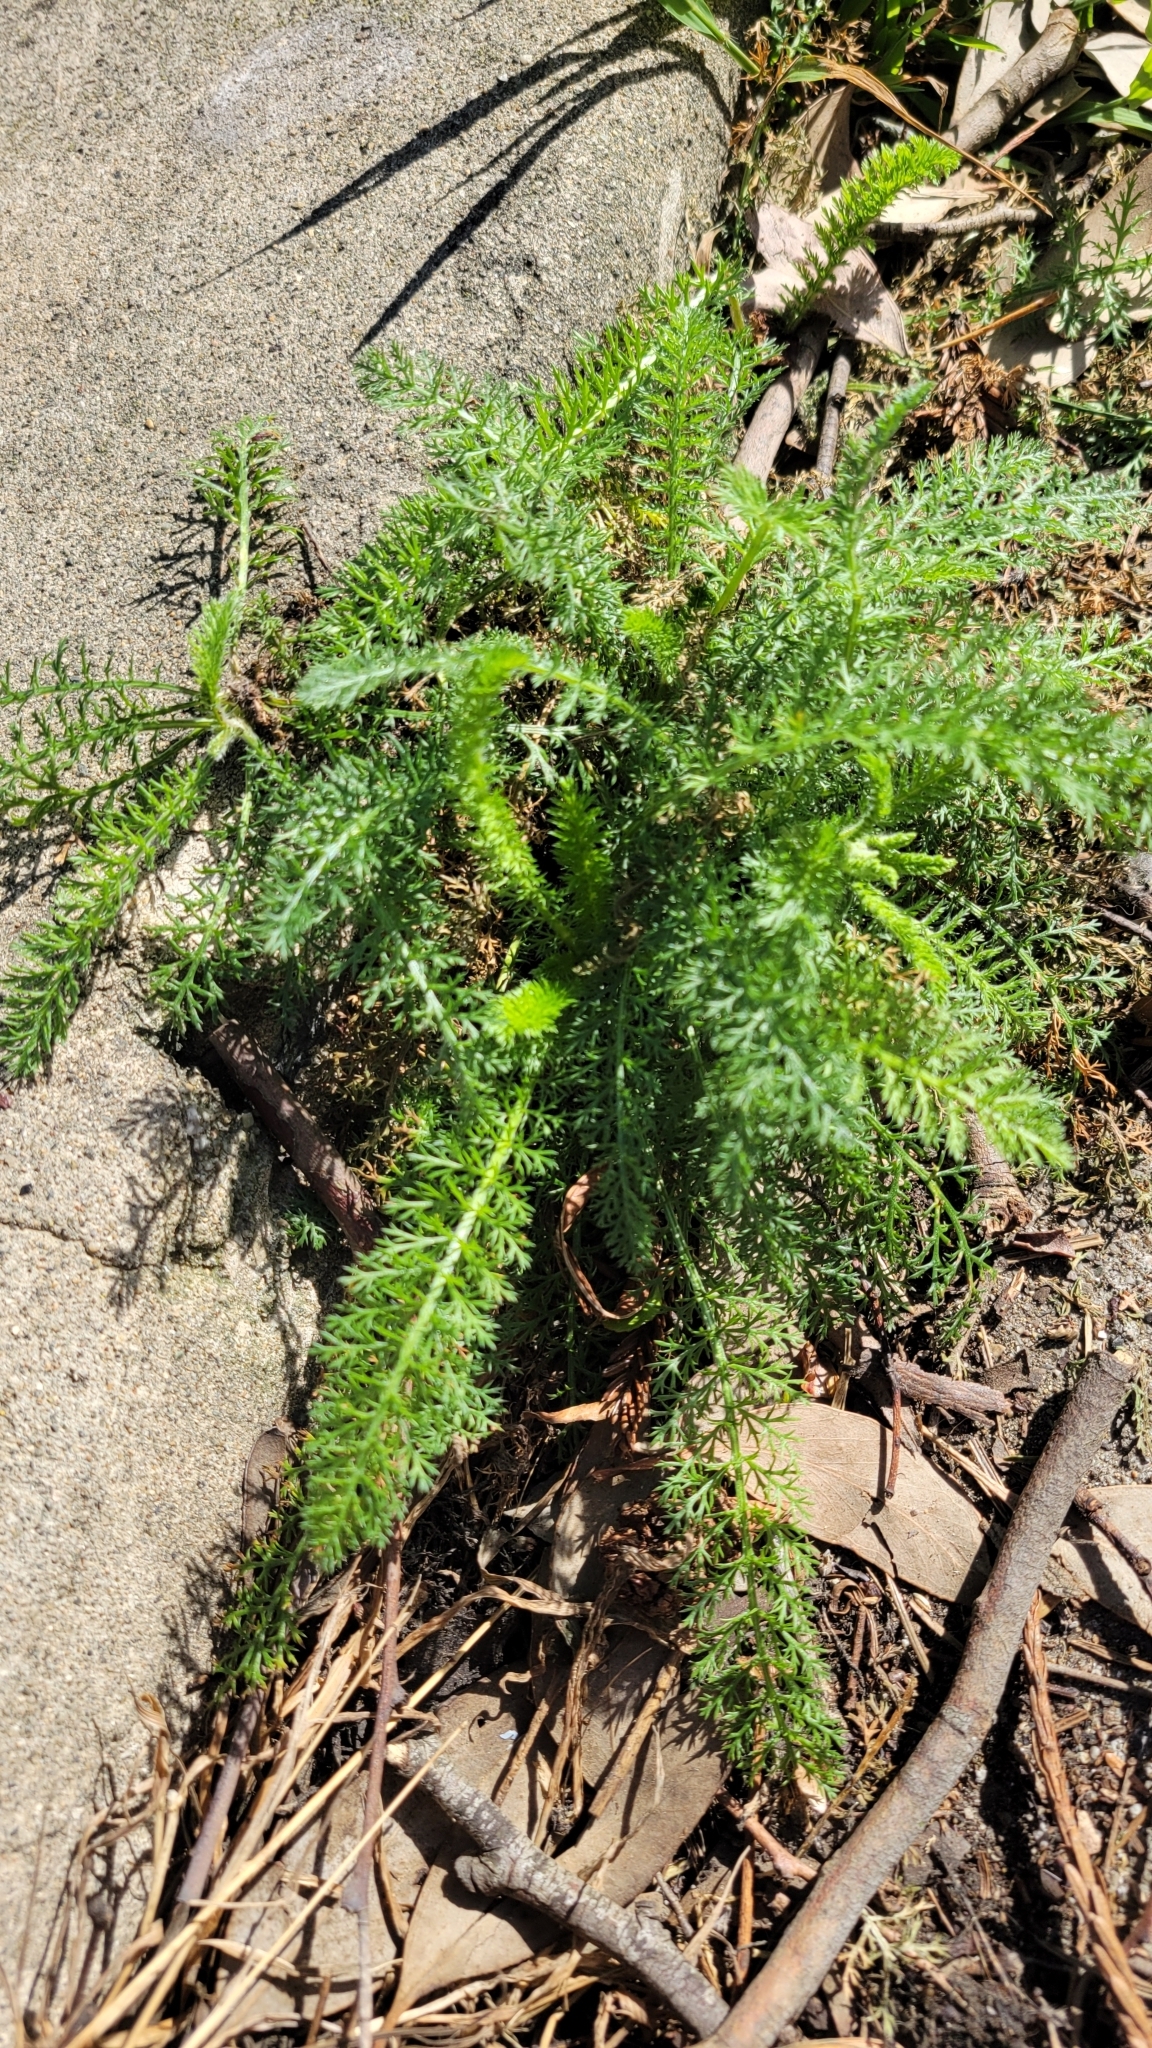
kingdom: Plantae
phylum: Tracheophyta
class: Magnoliopsida
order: Asterales
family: Asteraceae
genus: Achillea
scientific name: Achillea millefolium
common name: Yarrow
